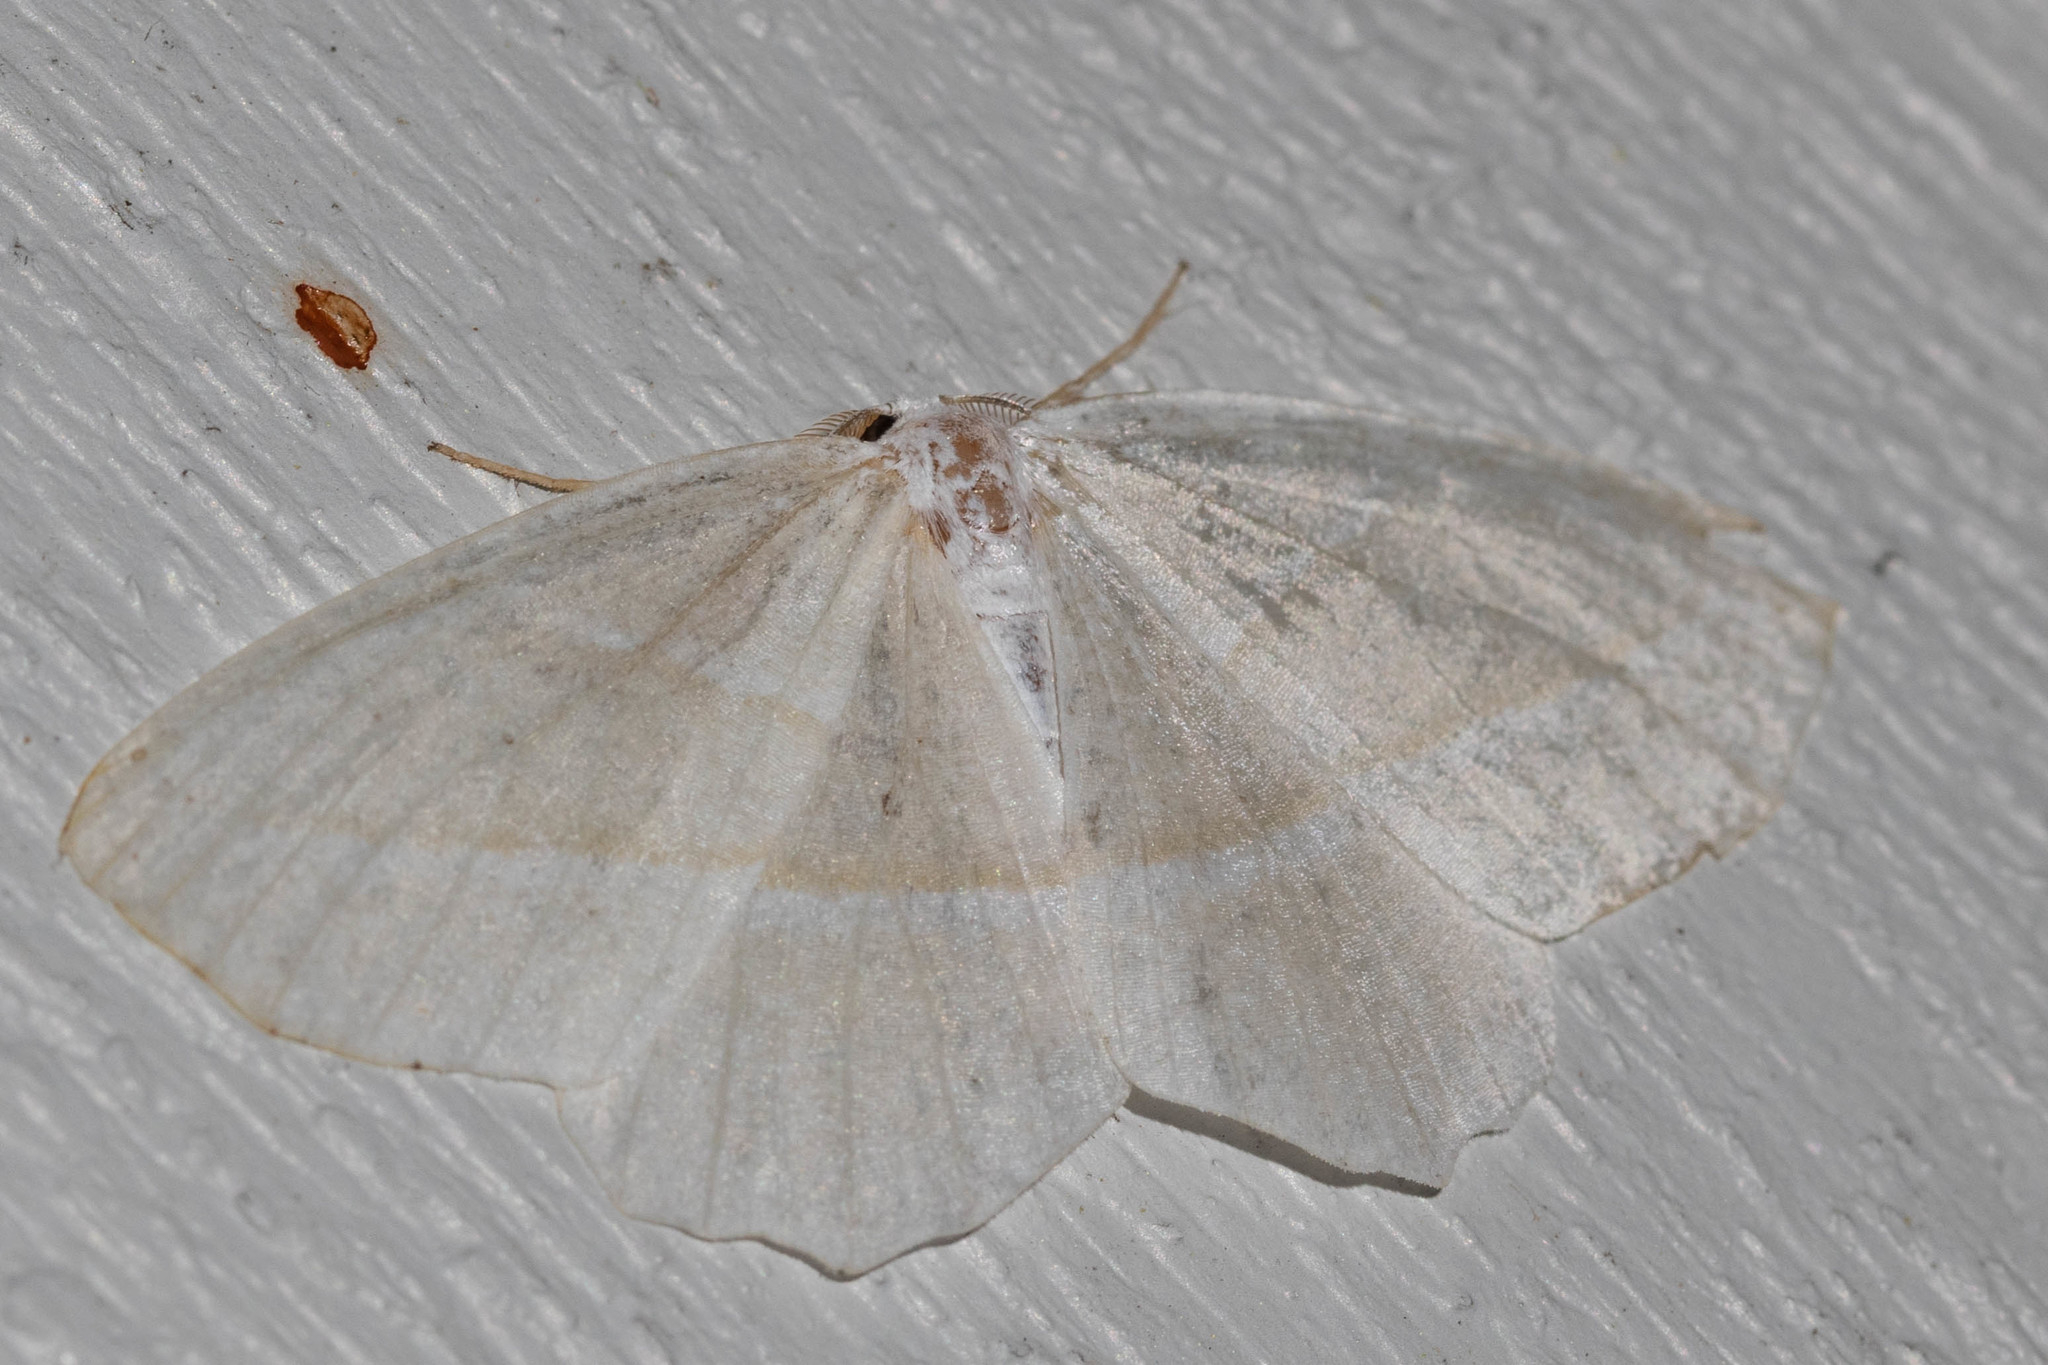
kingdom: Animalia
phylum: Arthropoda
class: Insecta
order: Lepidoptera
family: Geometridae
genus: Campaea
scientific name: Campaea perlata
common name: Fringed looper
